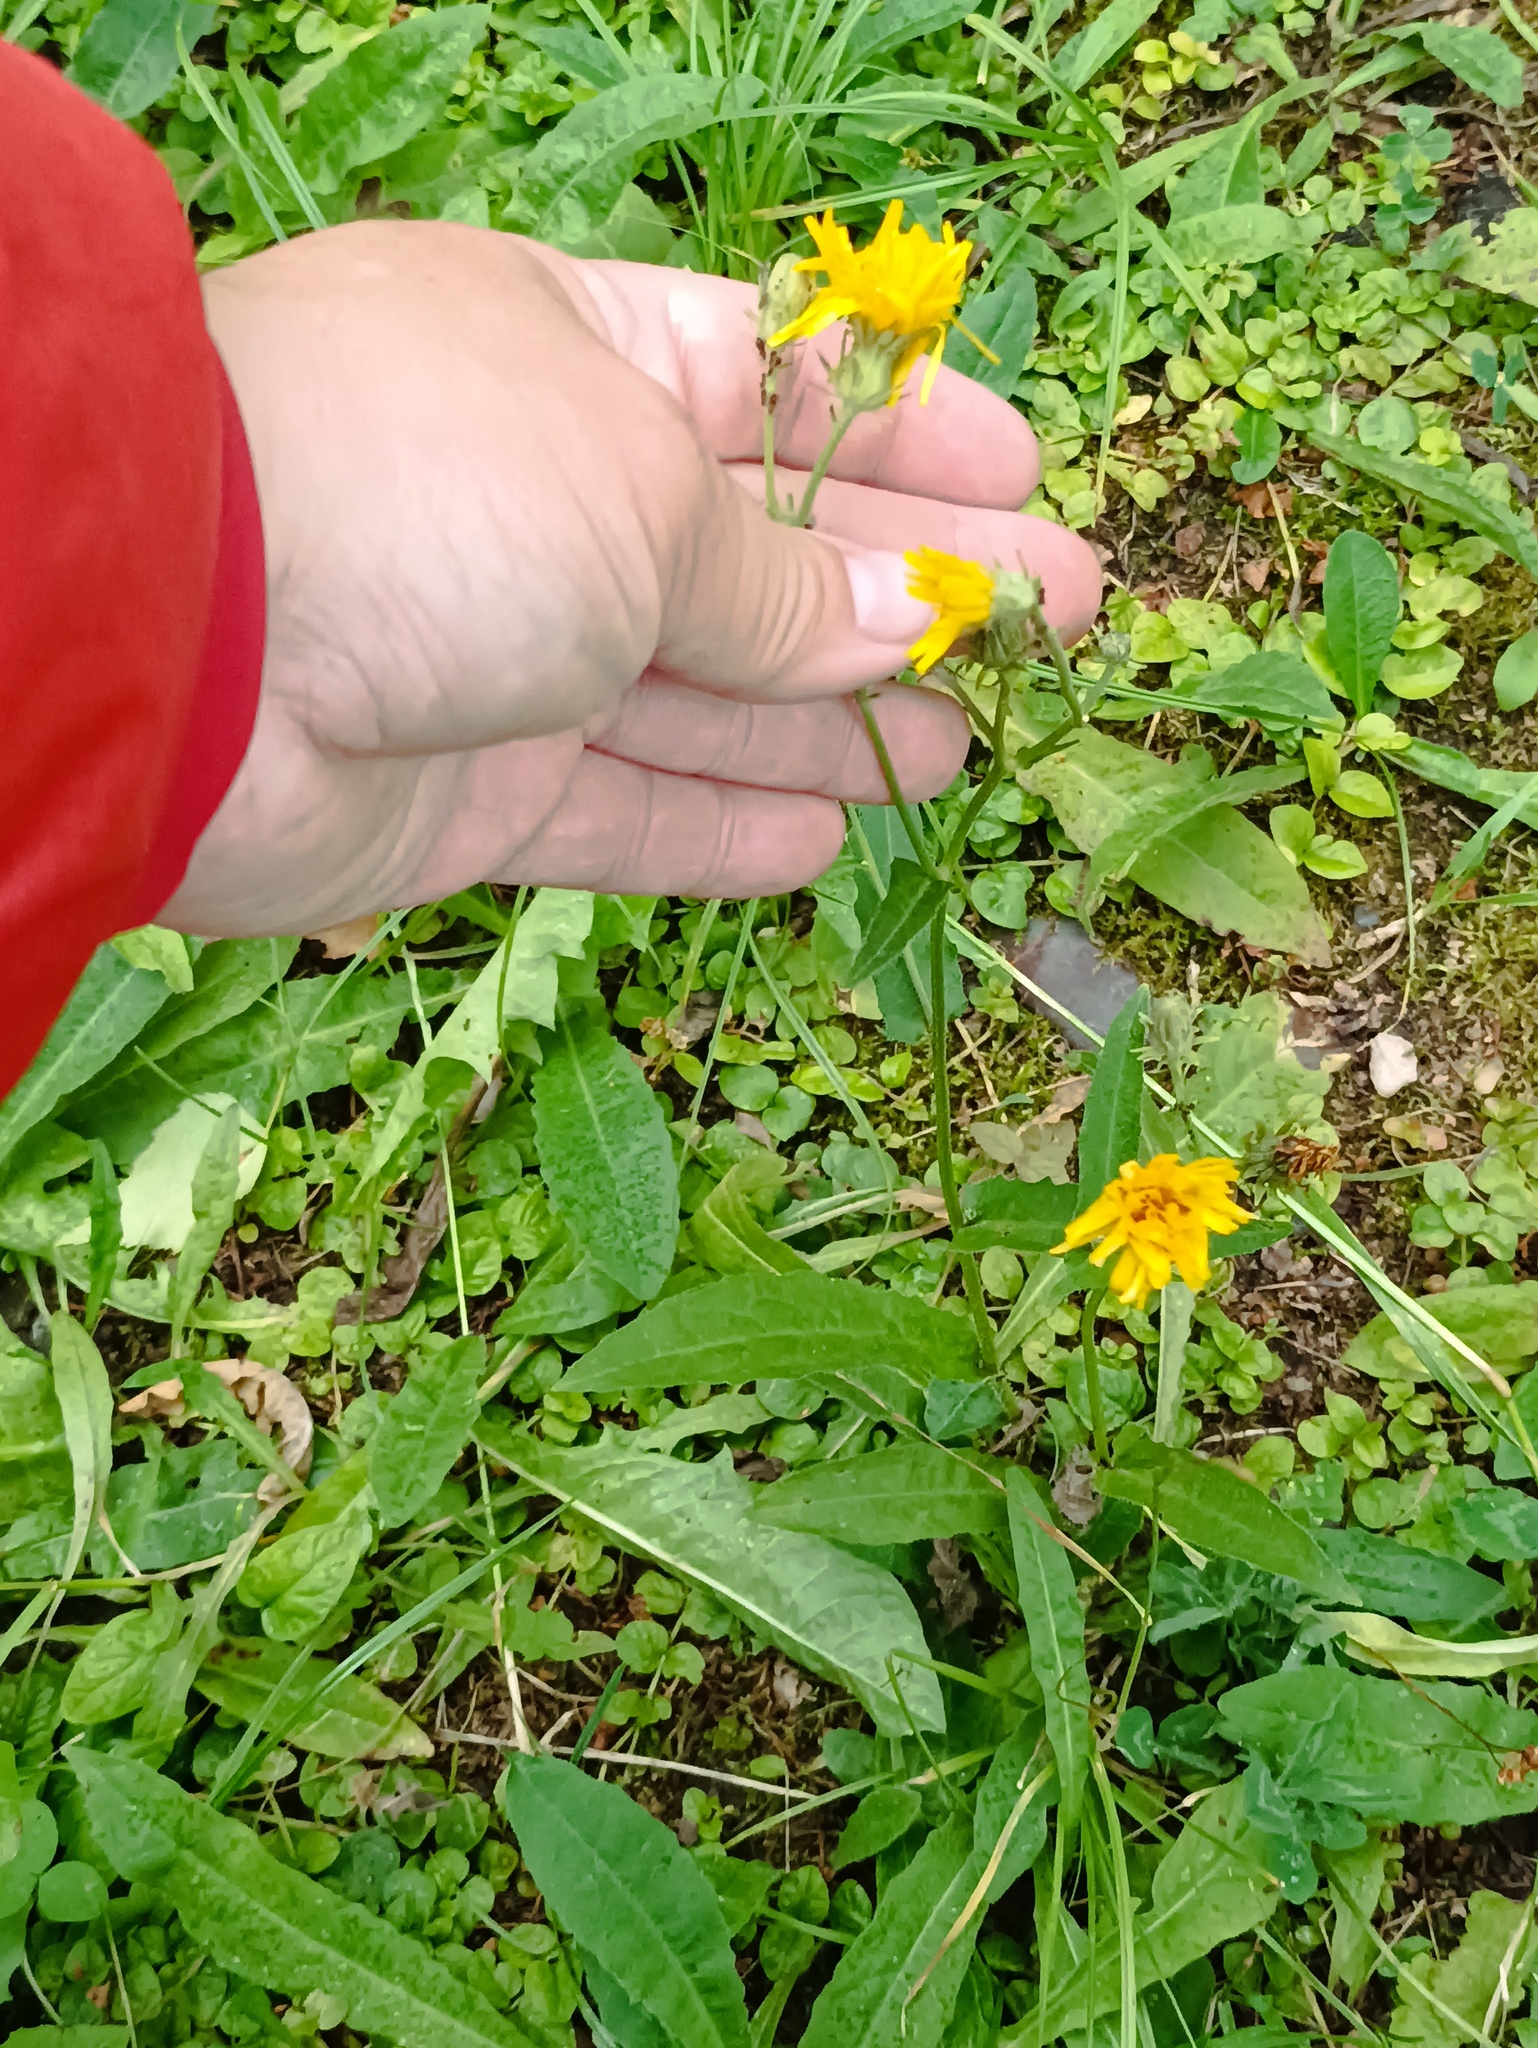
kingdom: Plantae
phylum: Tracheophyta
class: Magnoliopsida
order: Asterales
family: Asteraceae
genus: Picris
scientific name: Picris hieracioides
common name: Hawkweed oxtongue
